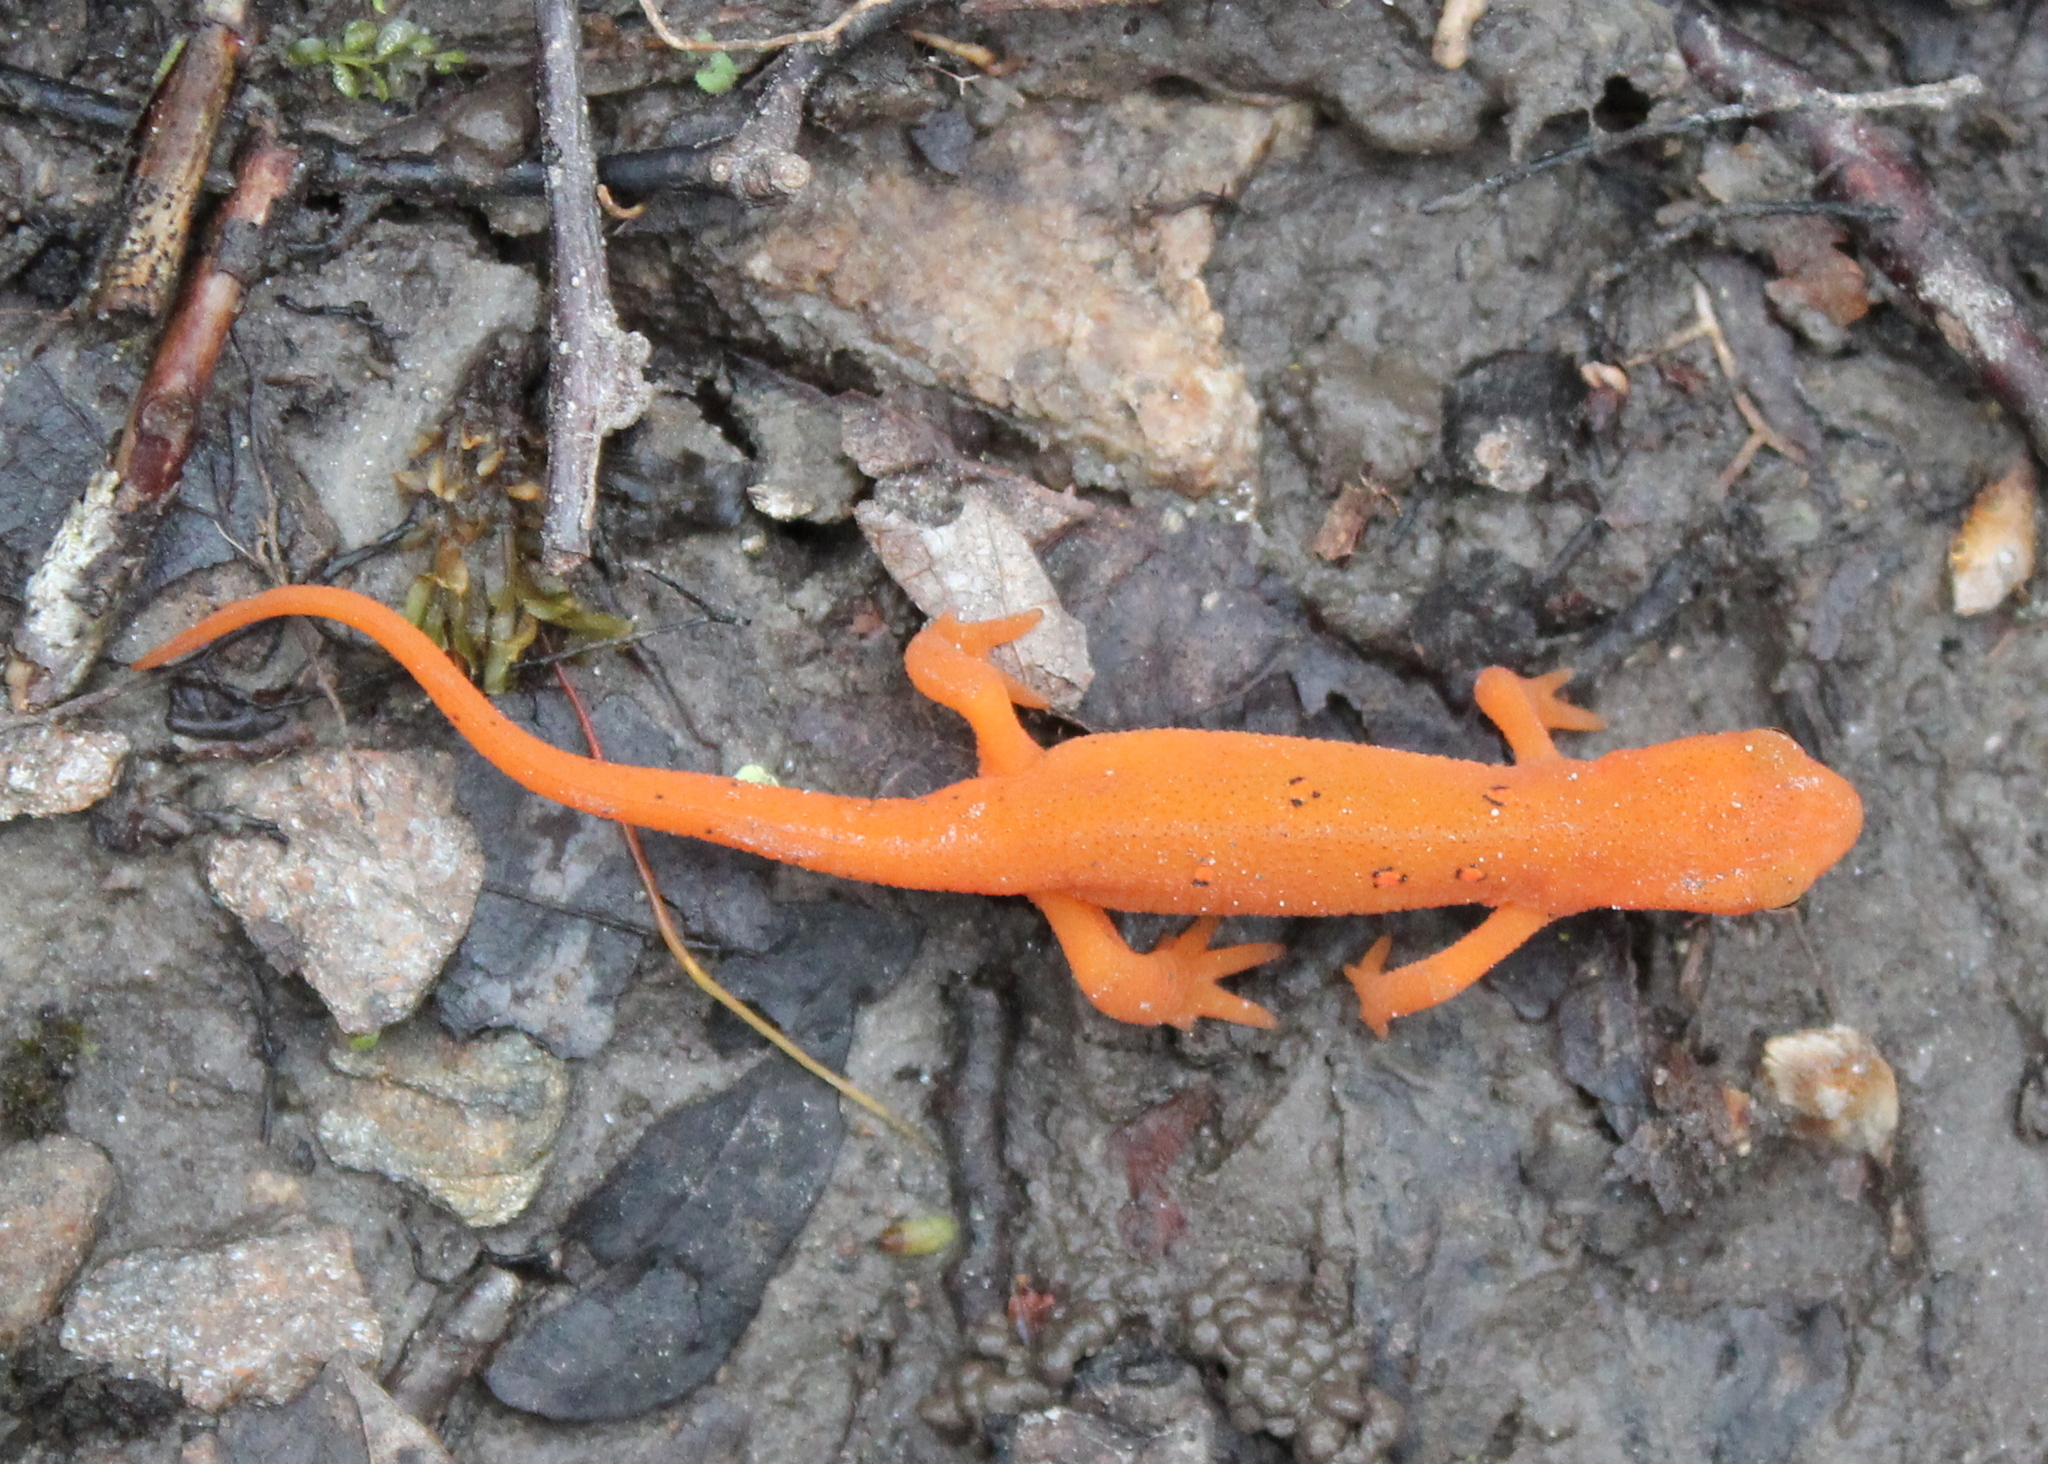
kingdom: Animalia
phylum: Chordata
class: Amphibia
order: Caudata
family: Salamandridae
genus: Notophthalmus
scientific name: Notophthalmus viridescens
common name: Eastern newt
